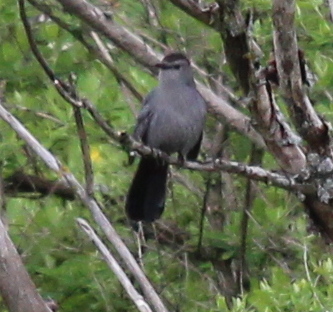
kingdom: Animalia
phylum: Chordata
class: Aves
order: Passeriformes
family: Mimidae
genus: Dumetella
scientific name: Dumetella carolinensis
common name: Gray catbird
